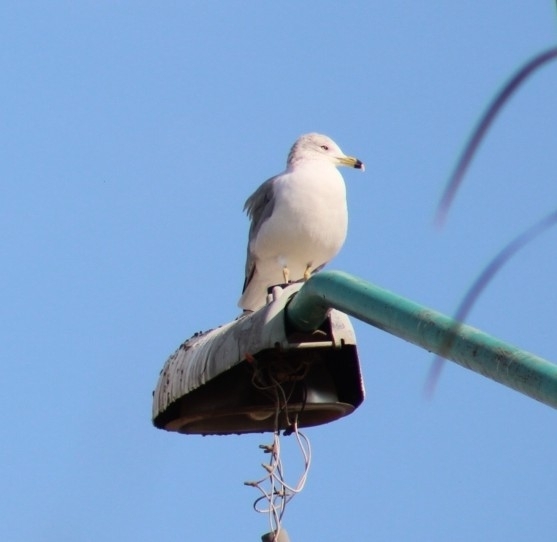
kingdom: Animalia
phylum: Chordata
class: Aves
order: Charadriiformes
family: Laridae
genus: Larus
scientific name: Larus delawarensis
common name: Ring-billed gull
